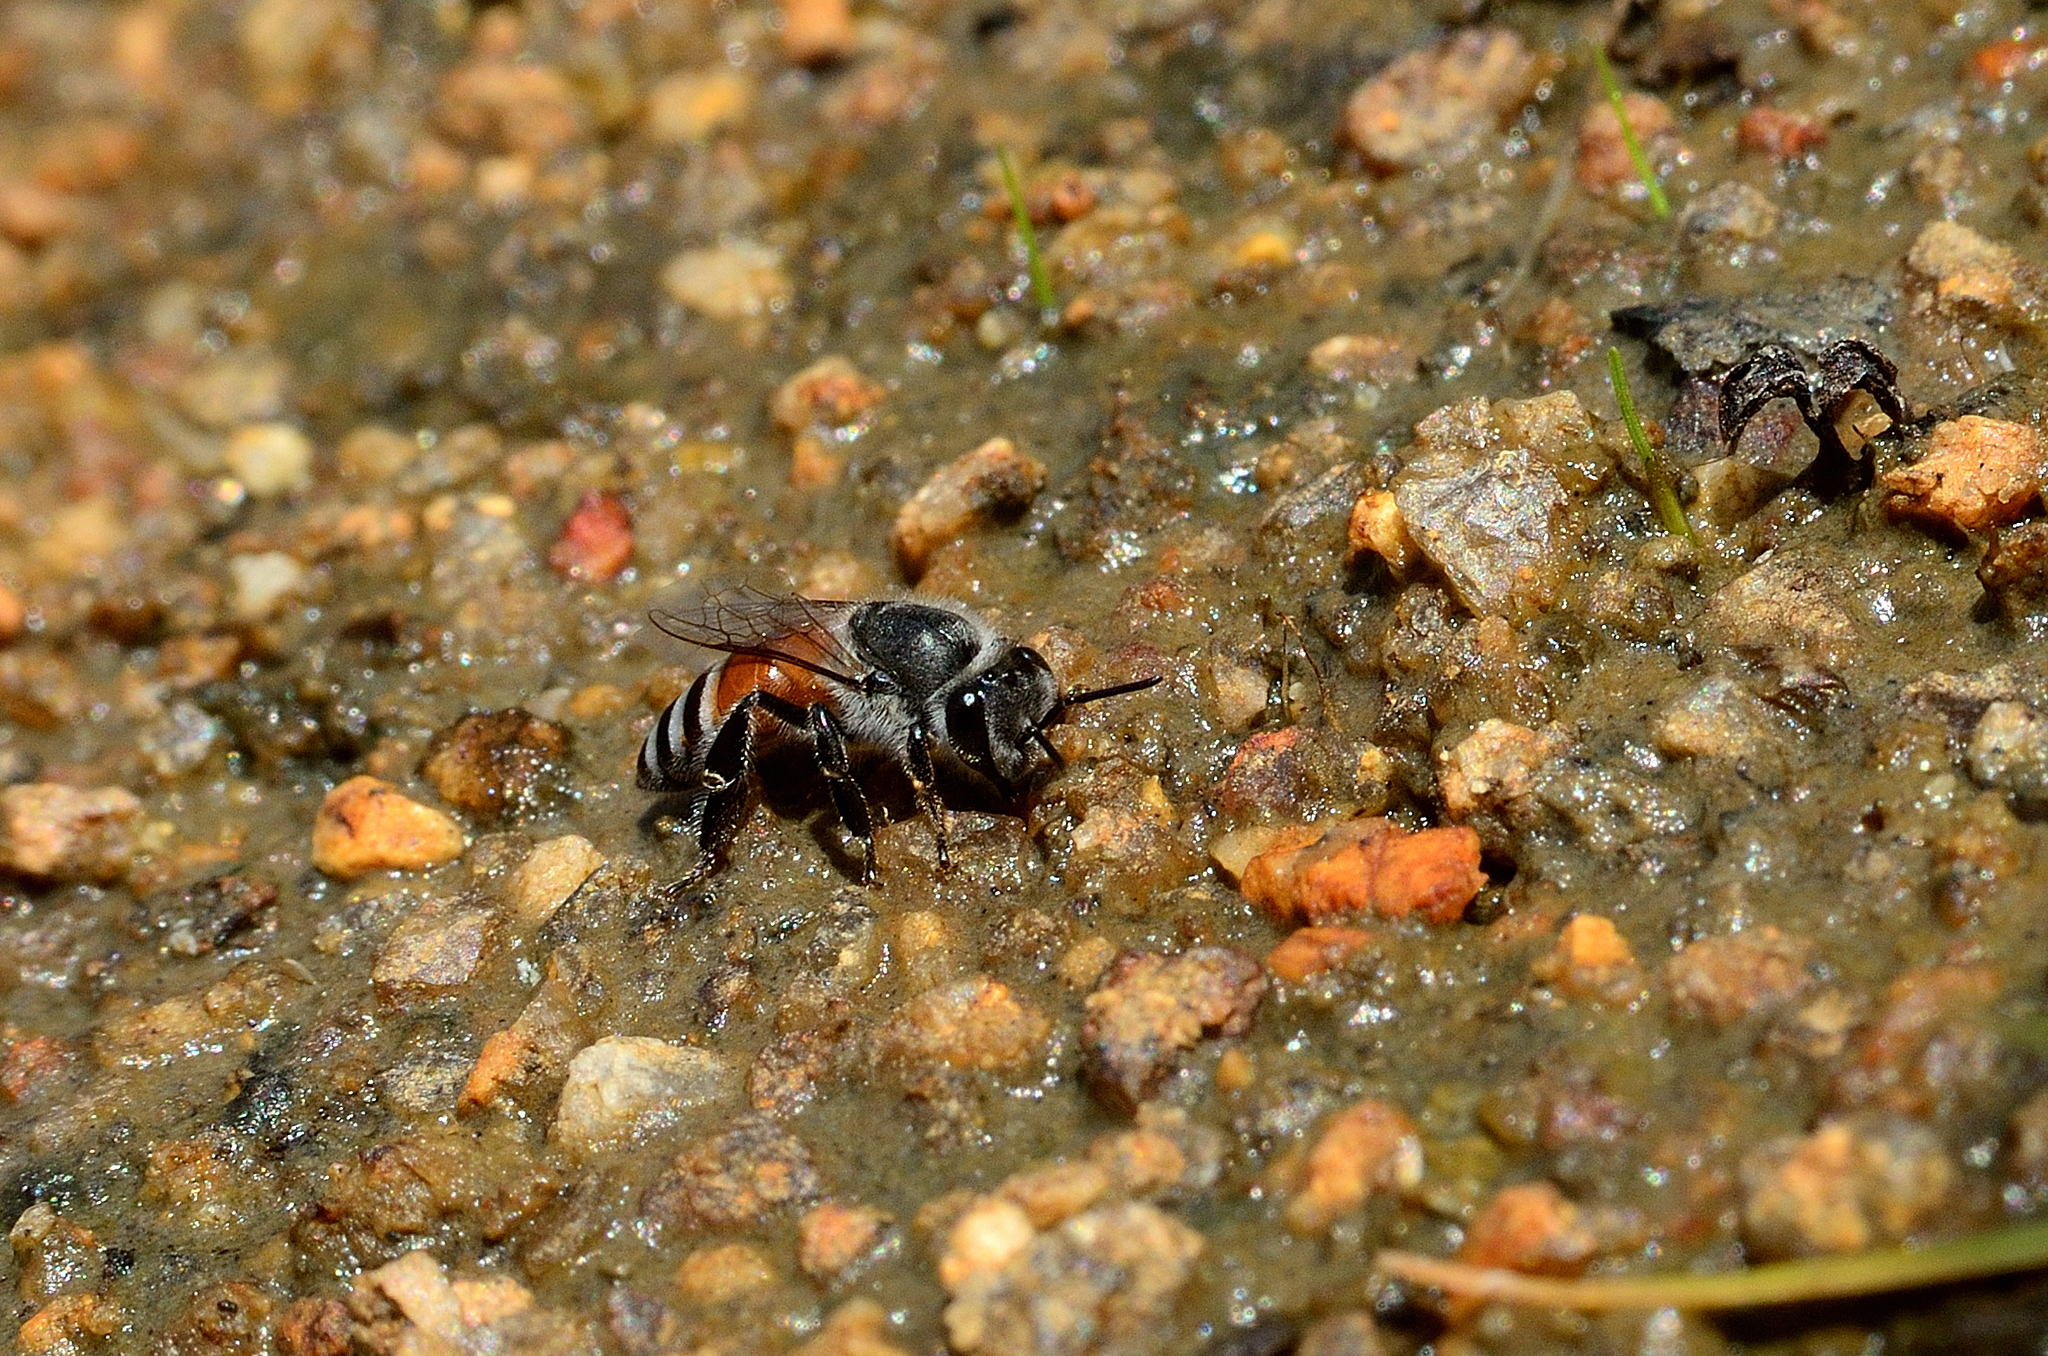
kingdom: Animalia
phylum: Arthropoda
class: Insecta
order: Hymenoptera
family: Apidae
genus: Apis
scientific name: Apis florea
